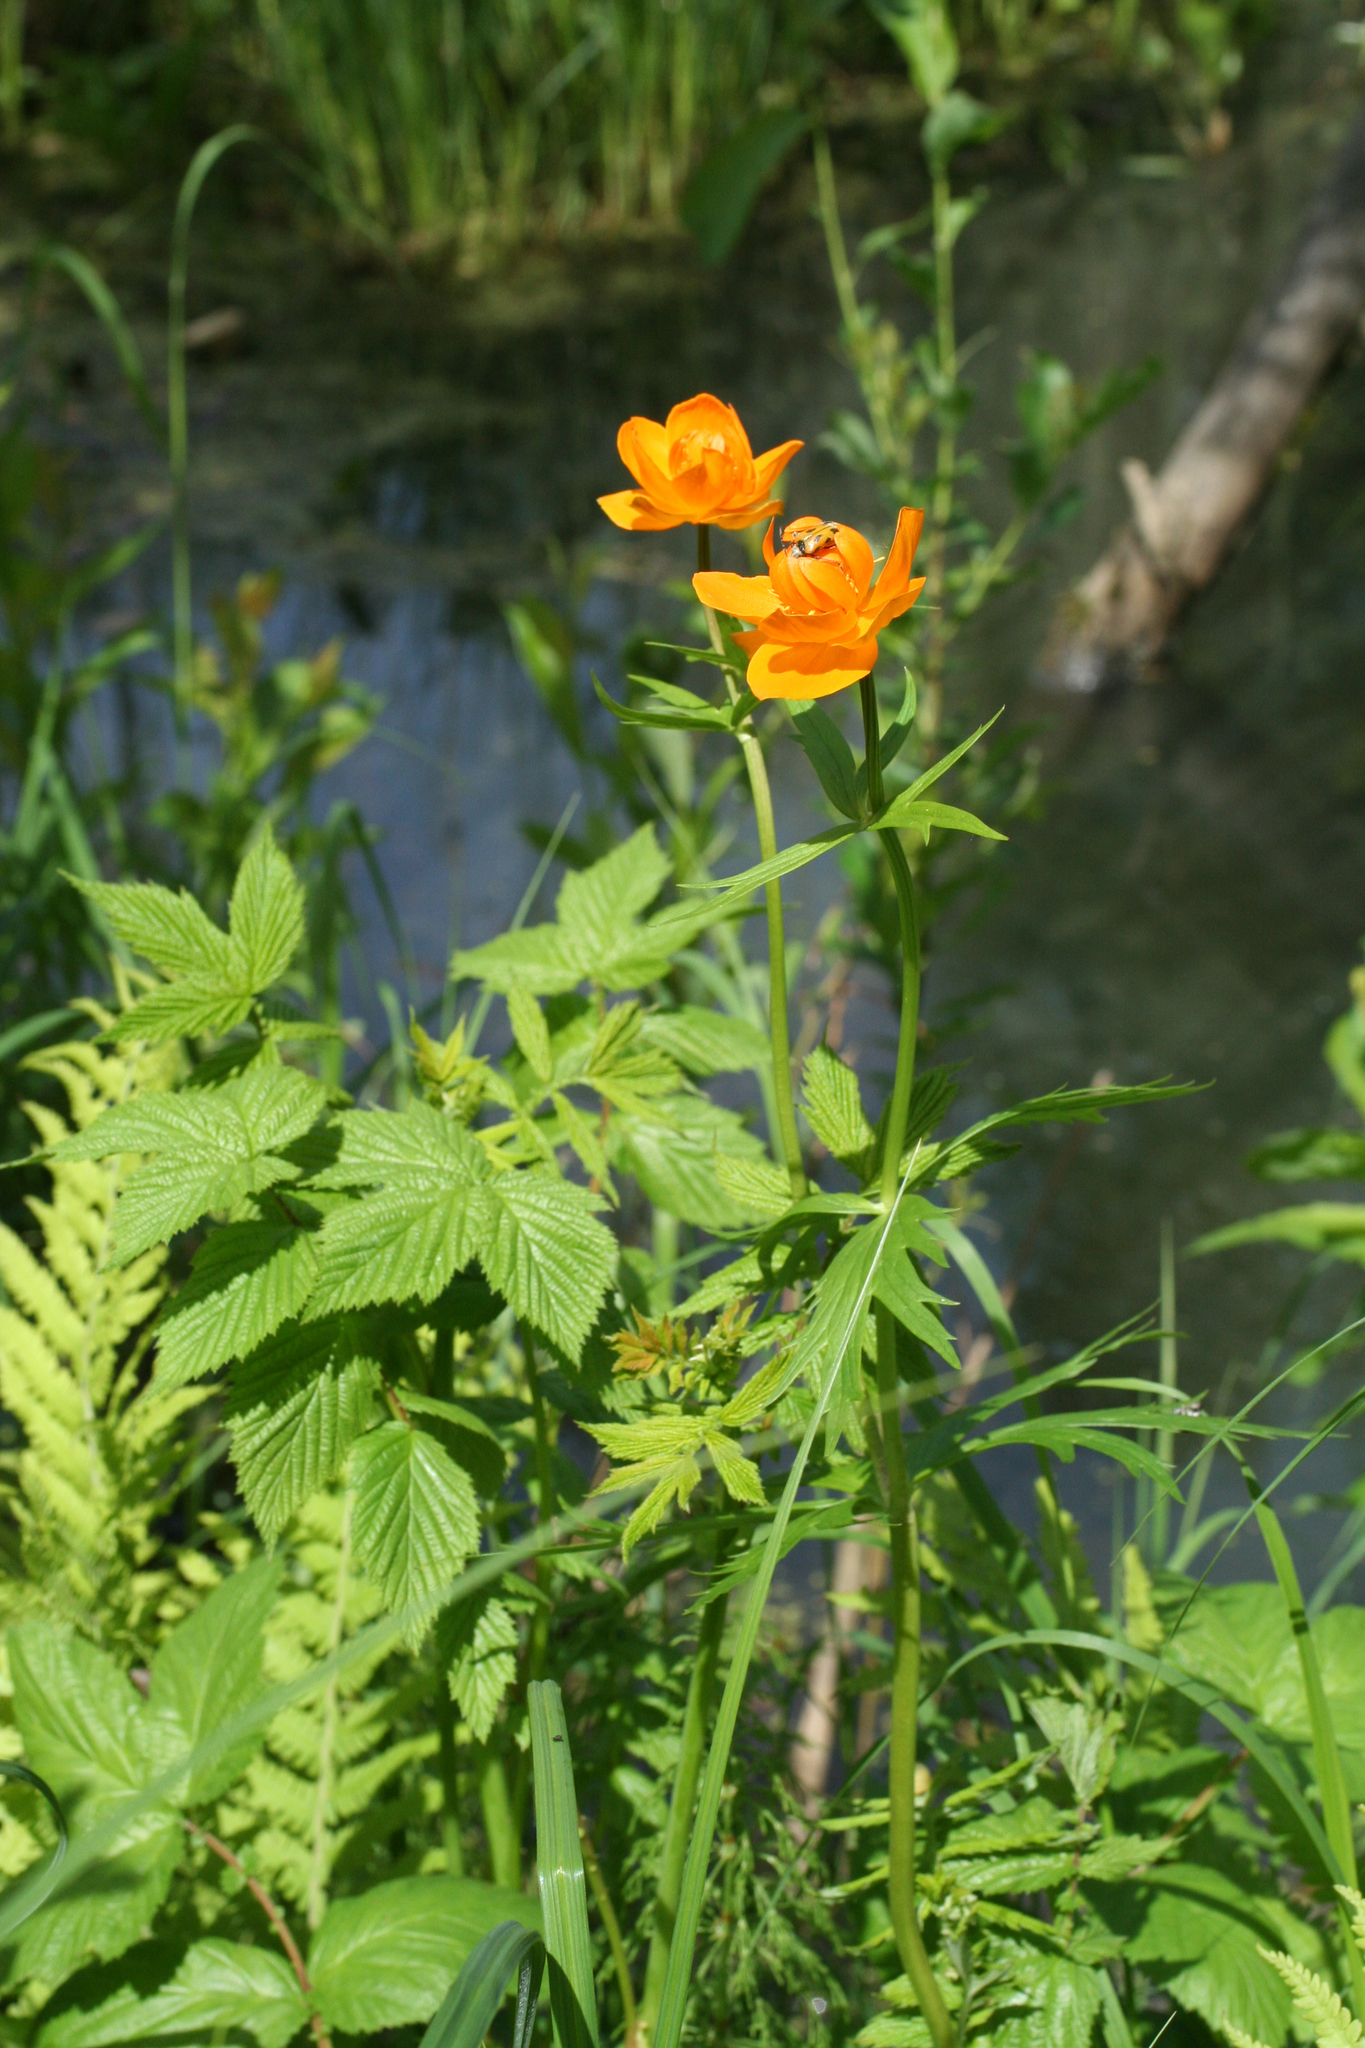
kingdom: Plantae
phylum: Tracheophyta
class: Magnoliopsida
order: Ranunculales
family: Ranunculaceae
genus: Trollius
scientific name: Trollius asiaticus
